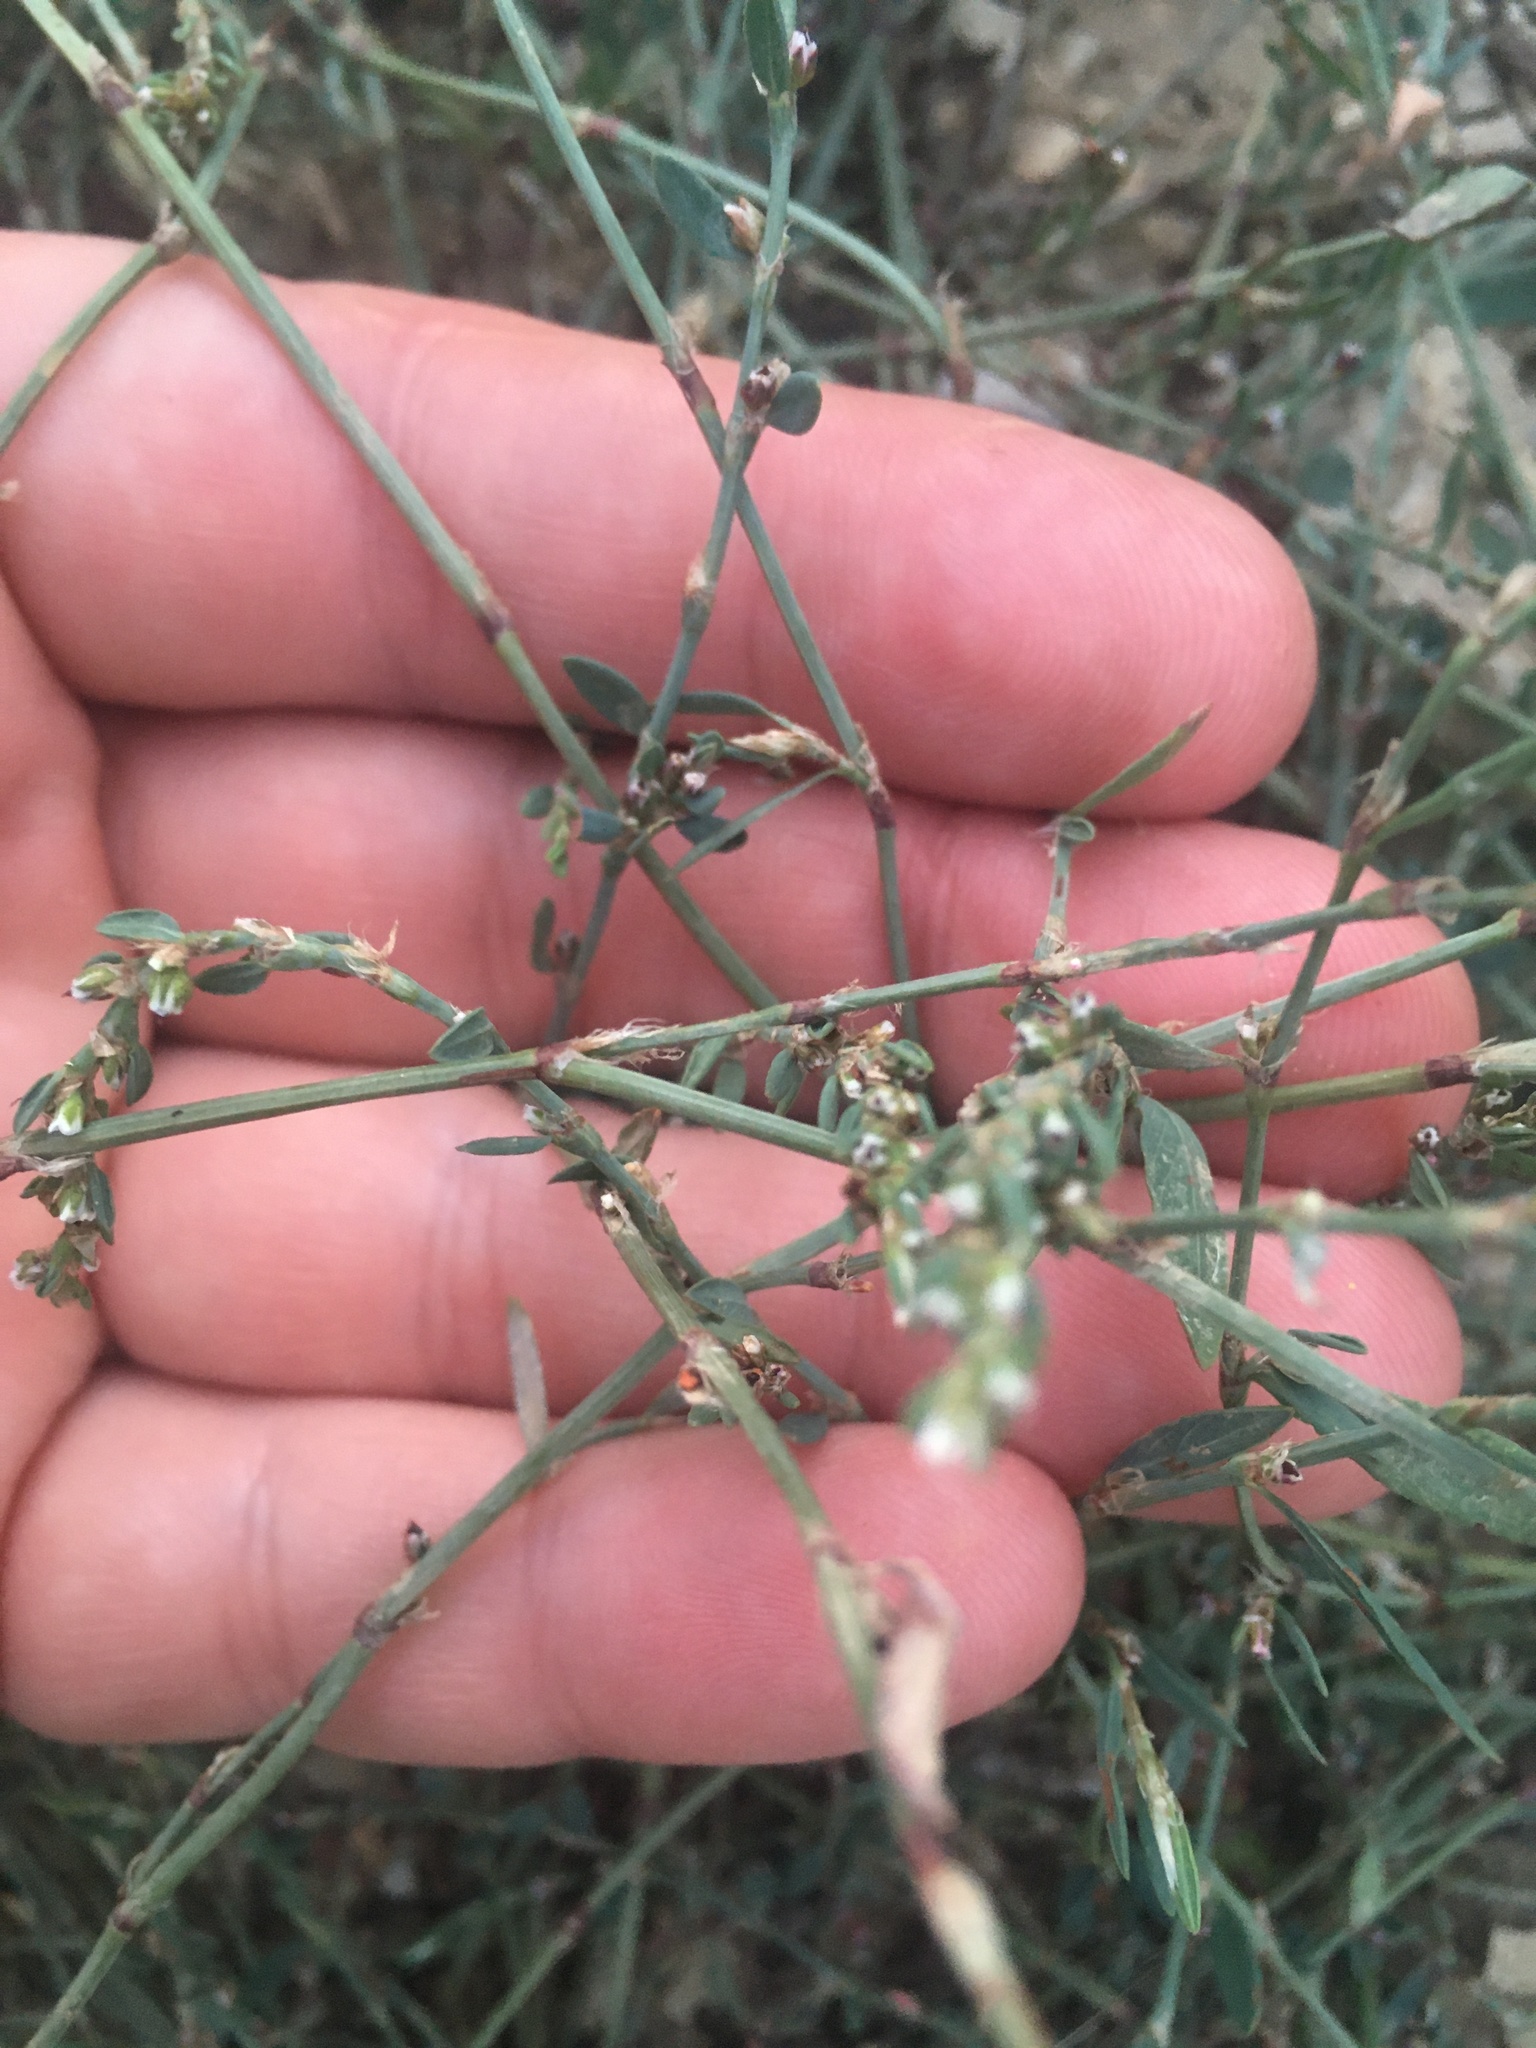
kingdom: Plantae
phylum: Tracheophyta
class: Magnoliopsida
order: Caryophyllales
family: Polygonaceae
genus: Polygonum
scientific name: Polygonum
